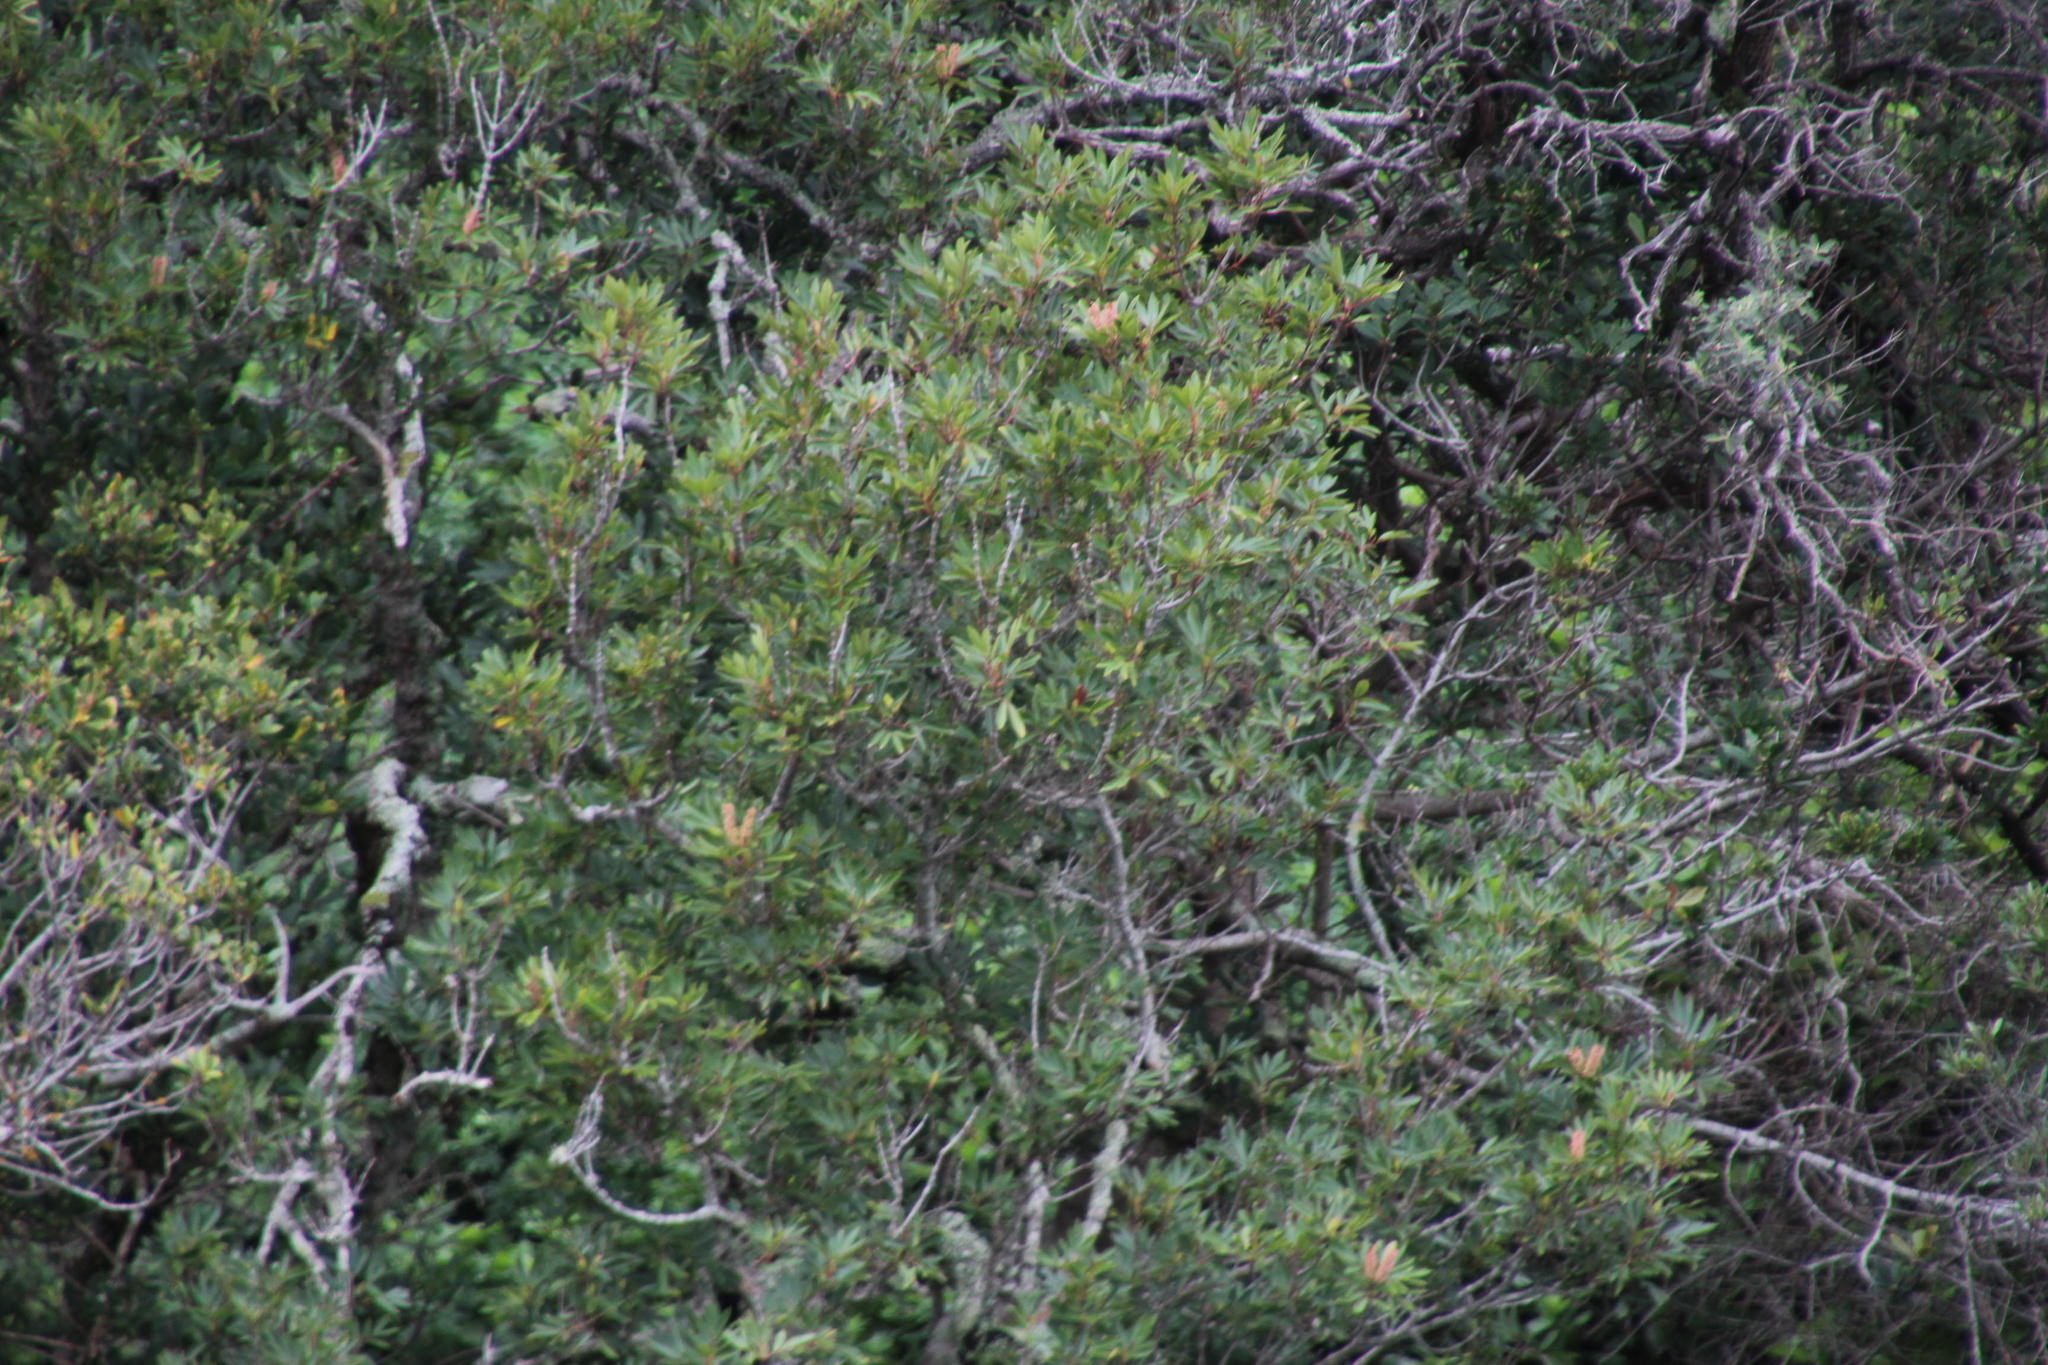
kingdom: Plantae
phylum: Tracheophyta
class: Magnoliopsida
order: Oxalidales
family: Cunoniaceae
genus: Cunonia
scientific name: Cunonia capensis
